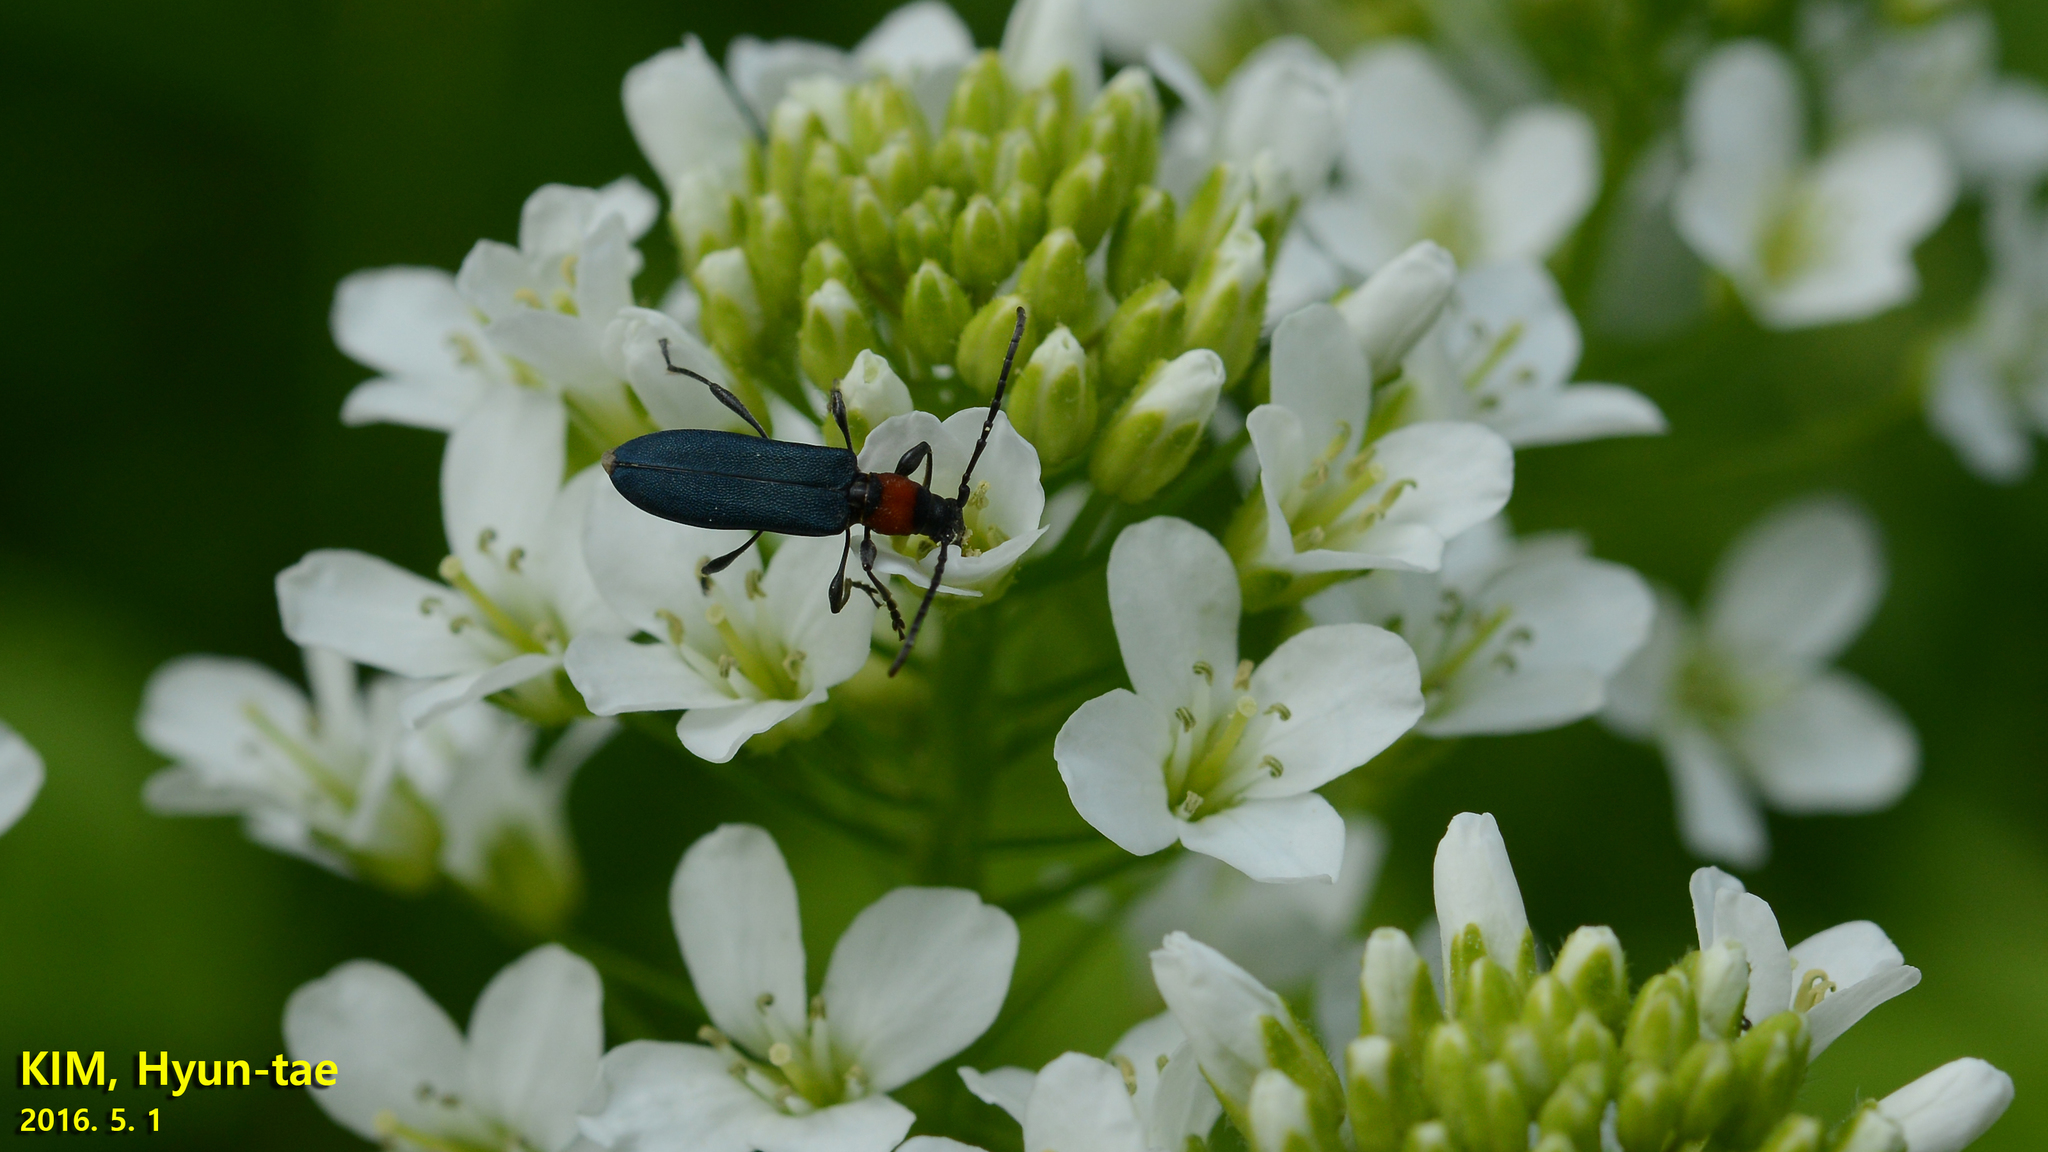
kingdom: Animalia
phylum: Arthropoda
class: Insecta
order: Coleoptera
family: Cerambycidae
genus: Dere
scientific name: Dere thoracica
